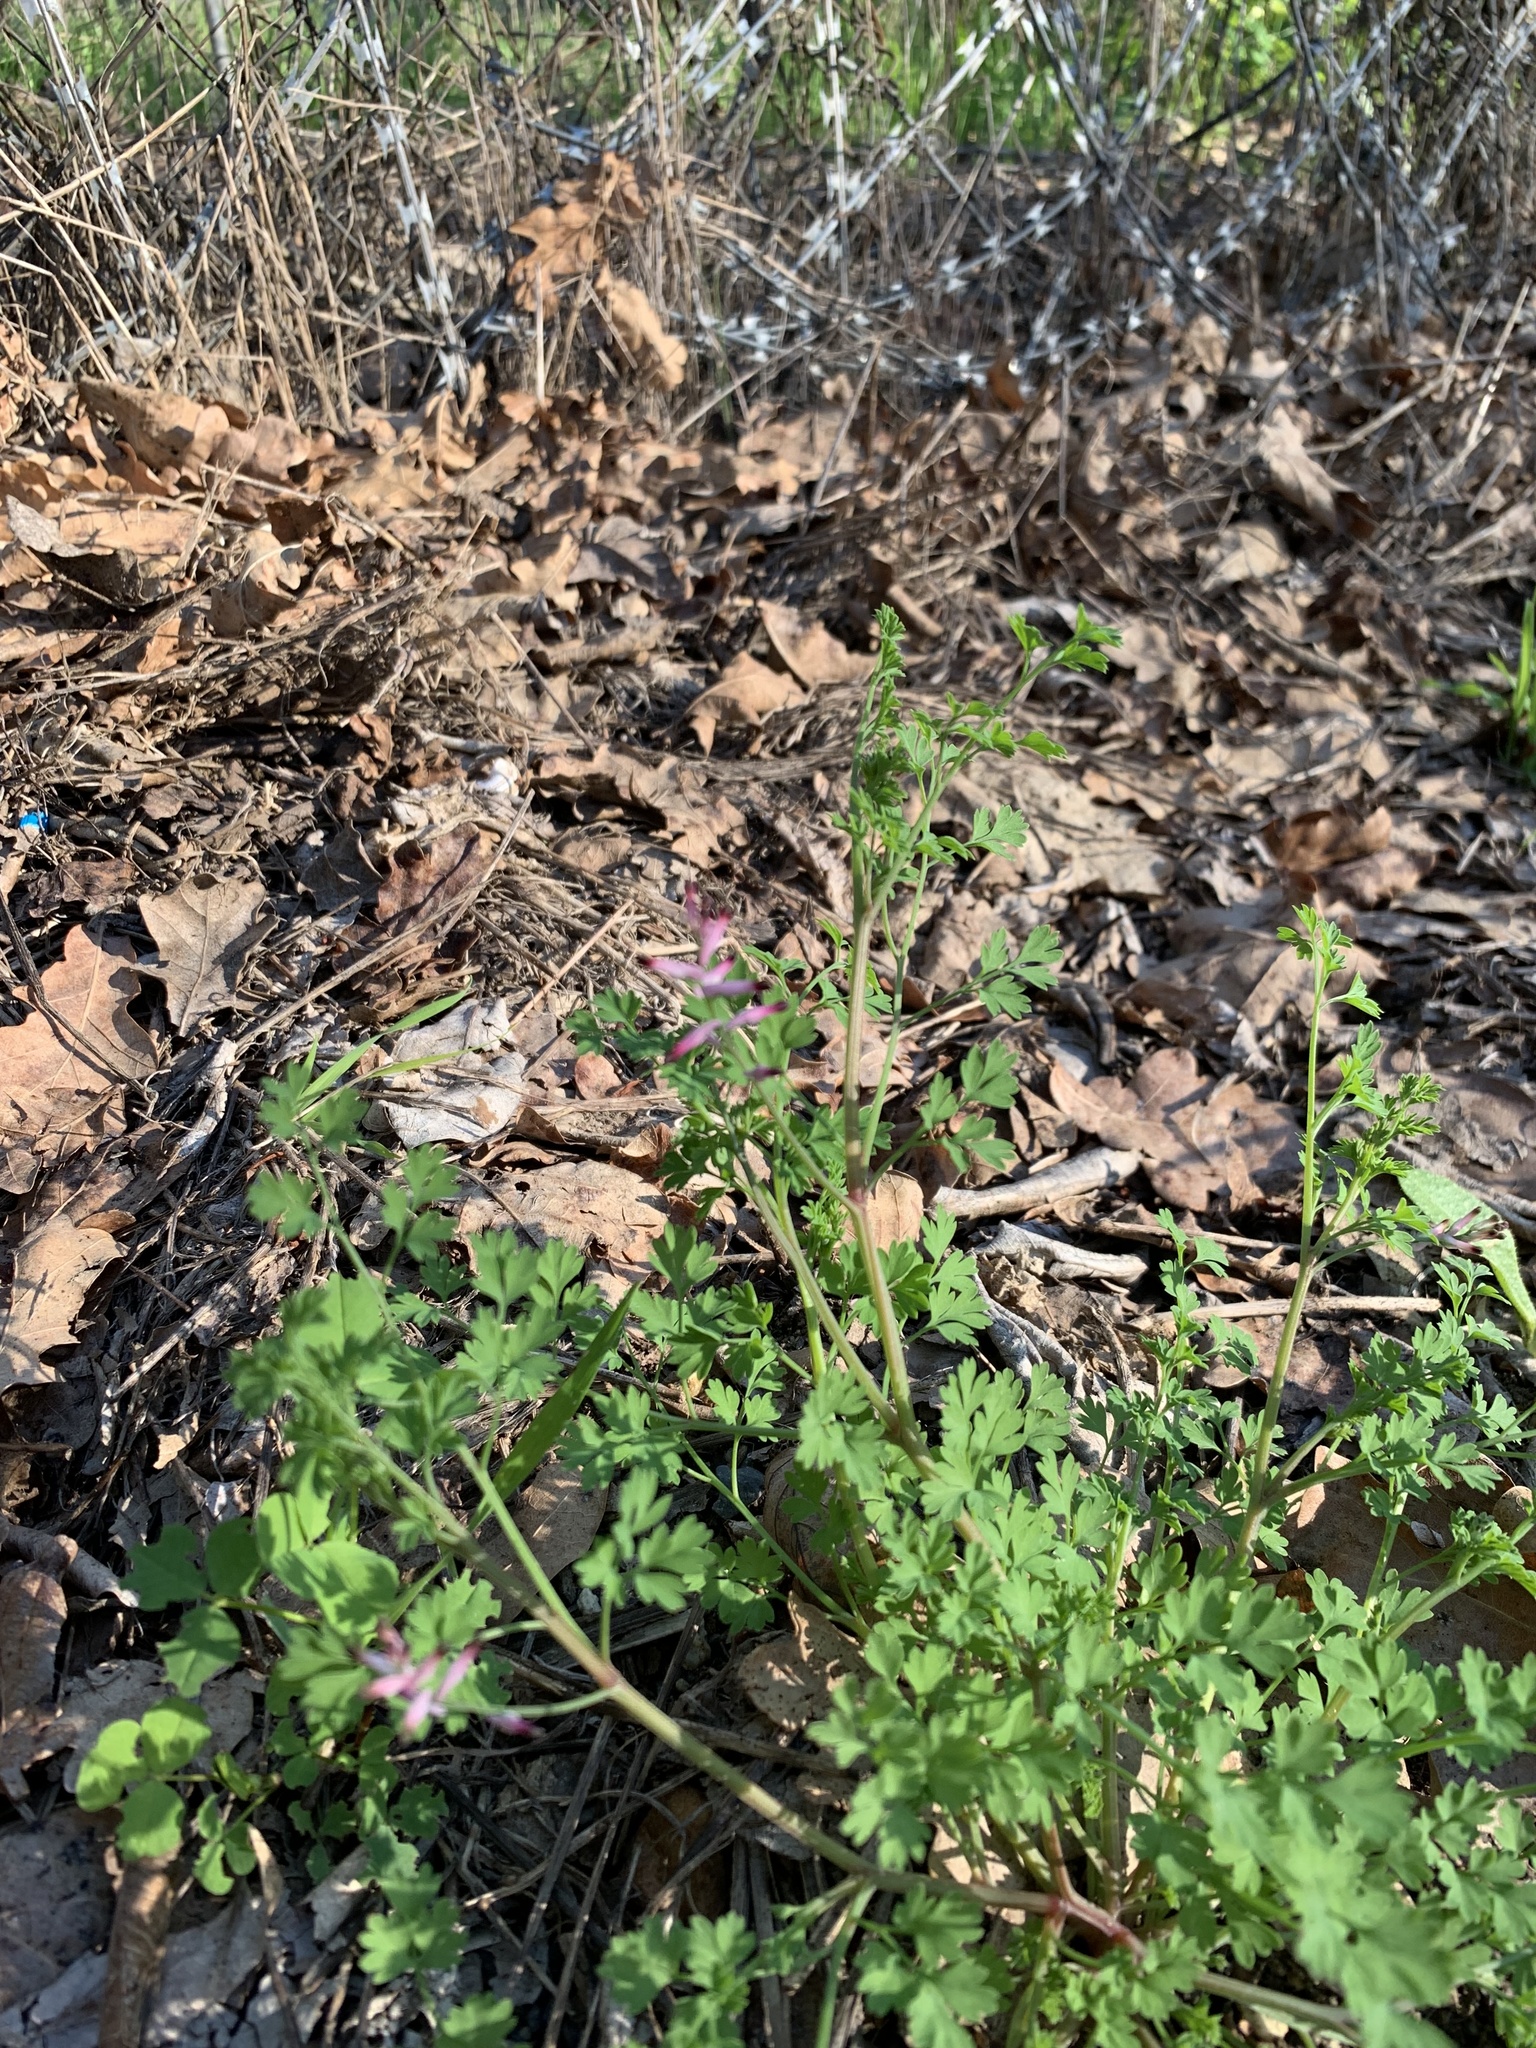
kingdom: Plantae
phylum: Tracheophyta
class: Magnoliopsida
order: Ranunculales
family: Papaveraceae
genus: Fumaria
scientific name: Fumaria muralis
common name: Common ramping-fumitory
